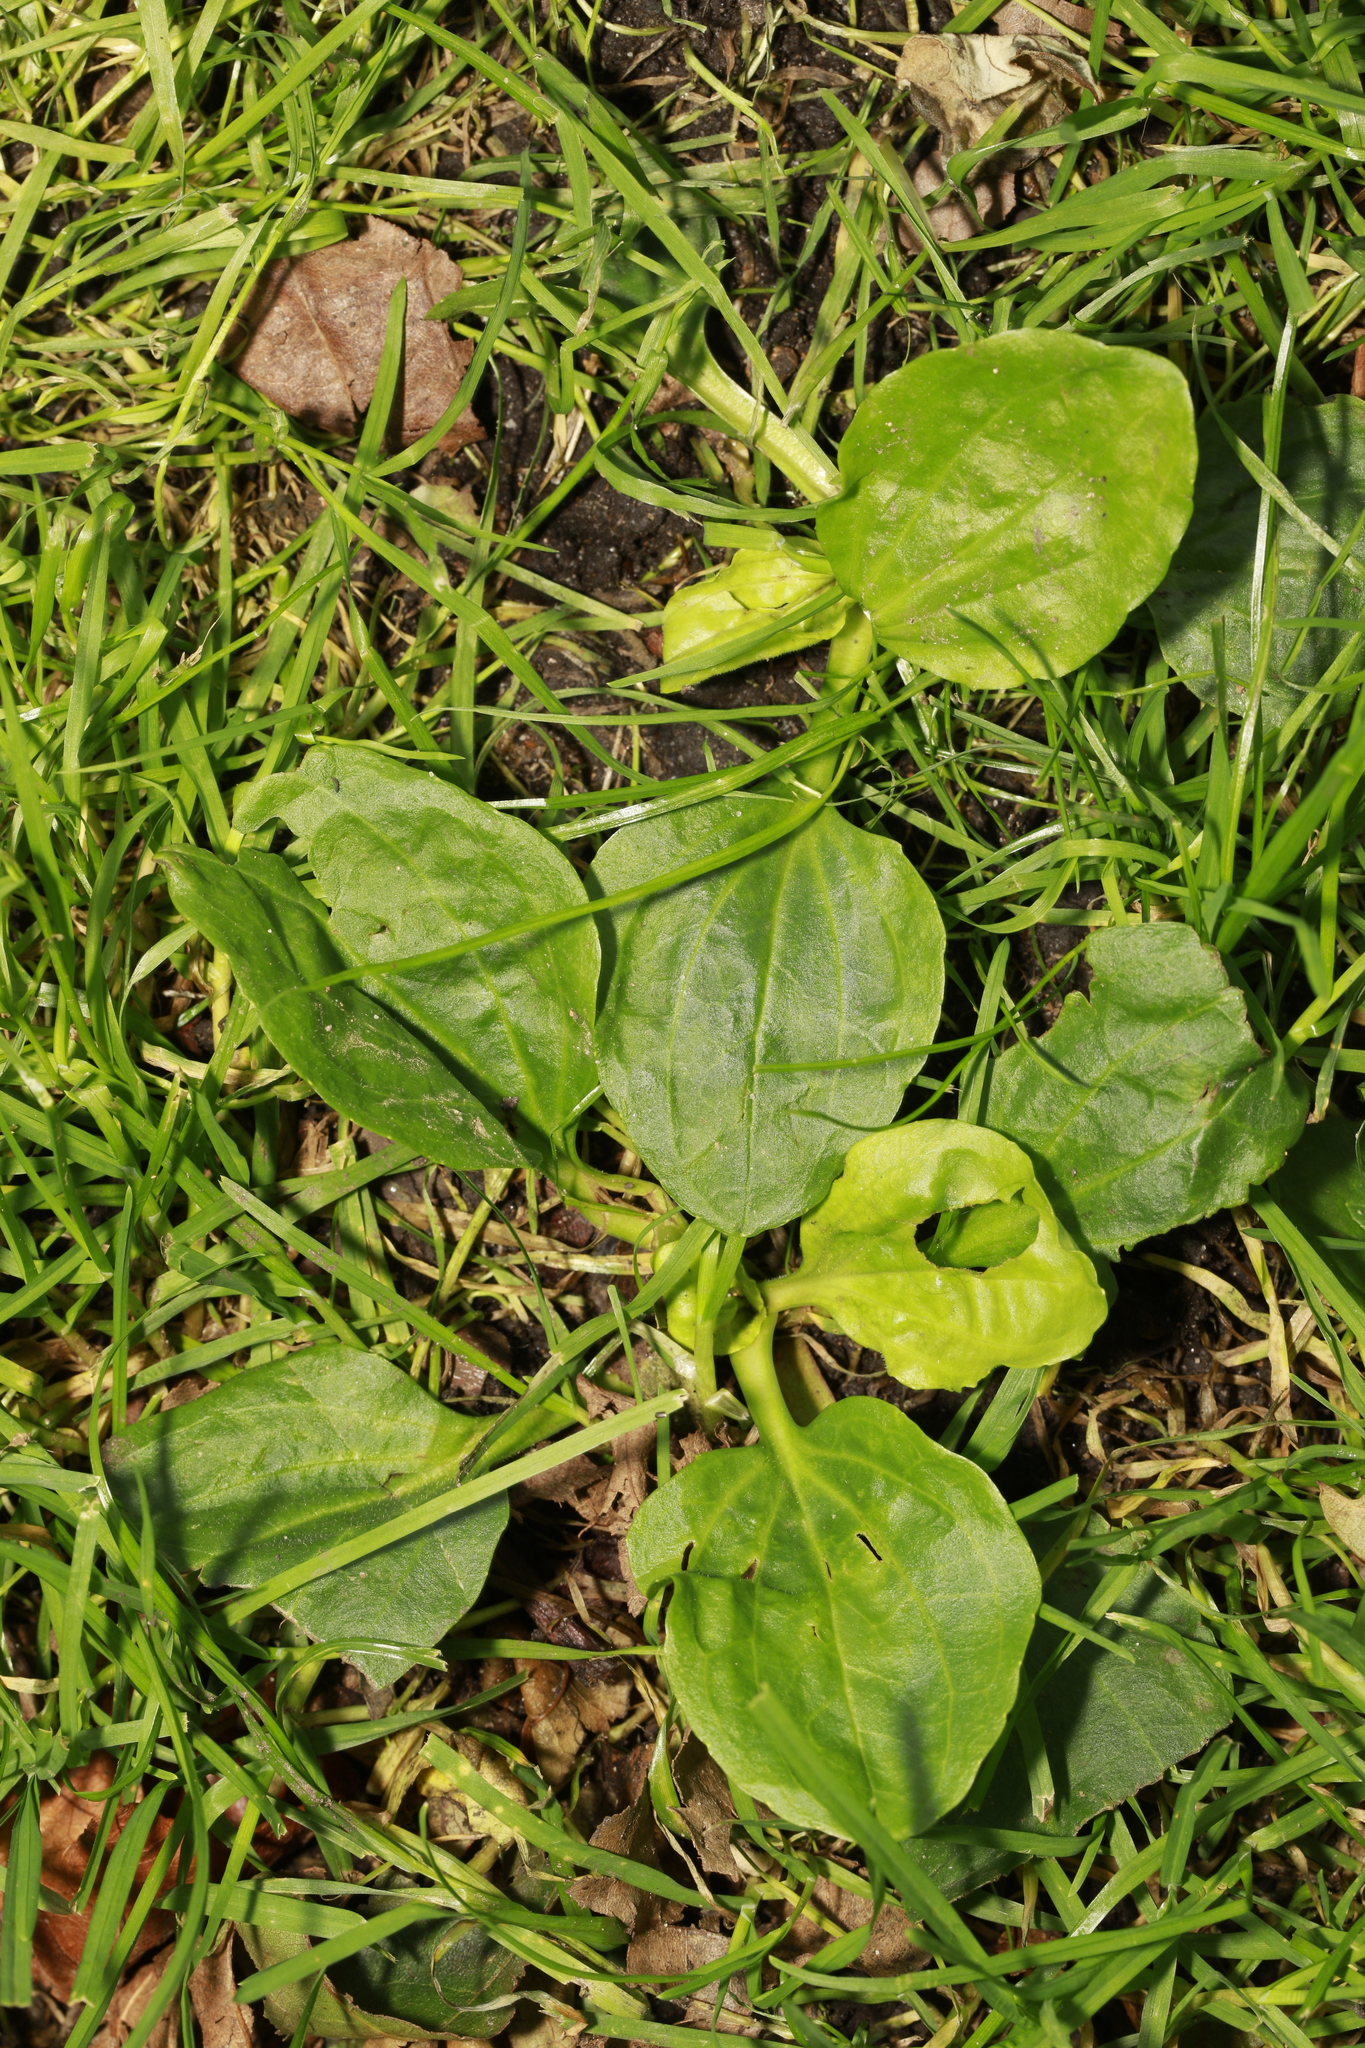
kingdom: Plantae
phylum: Tracheophyta
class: Magnoliopsida
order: Lamiales
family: Plantaginaceae
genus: Plantago
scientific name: Plantago major
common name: Common plantain
